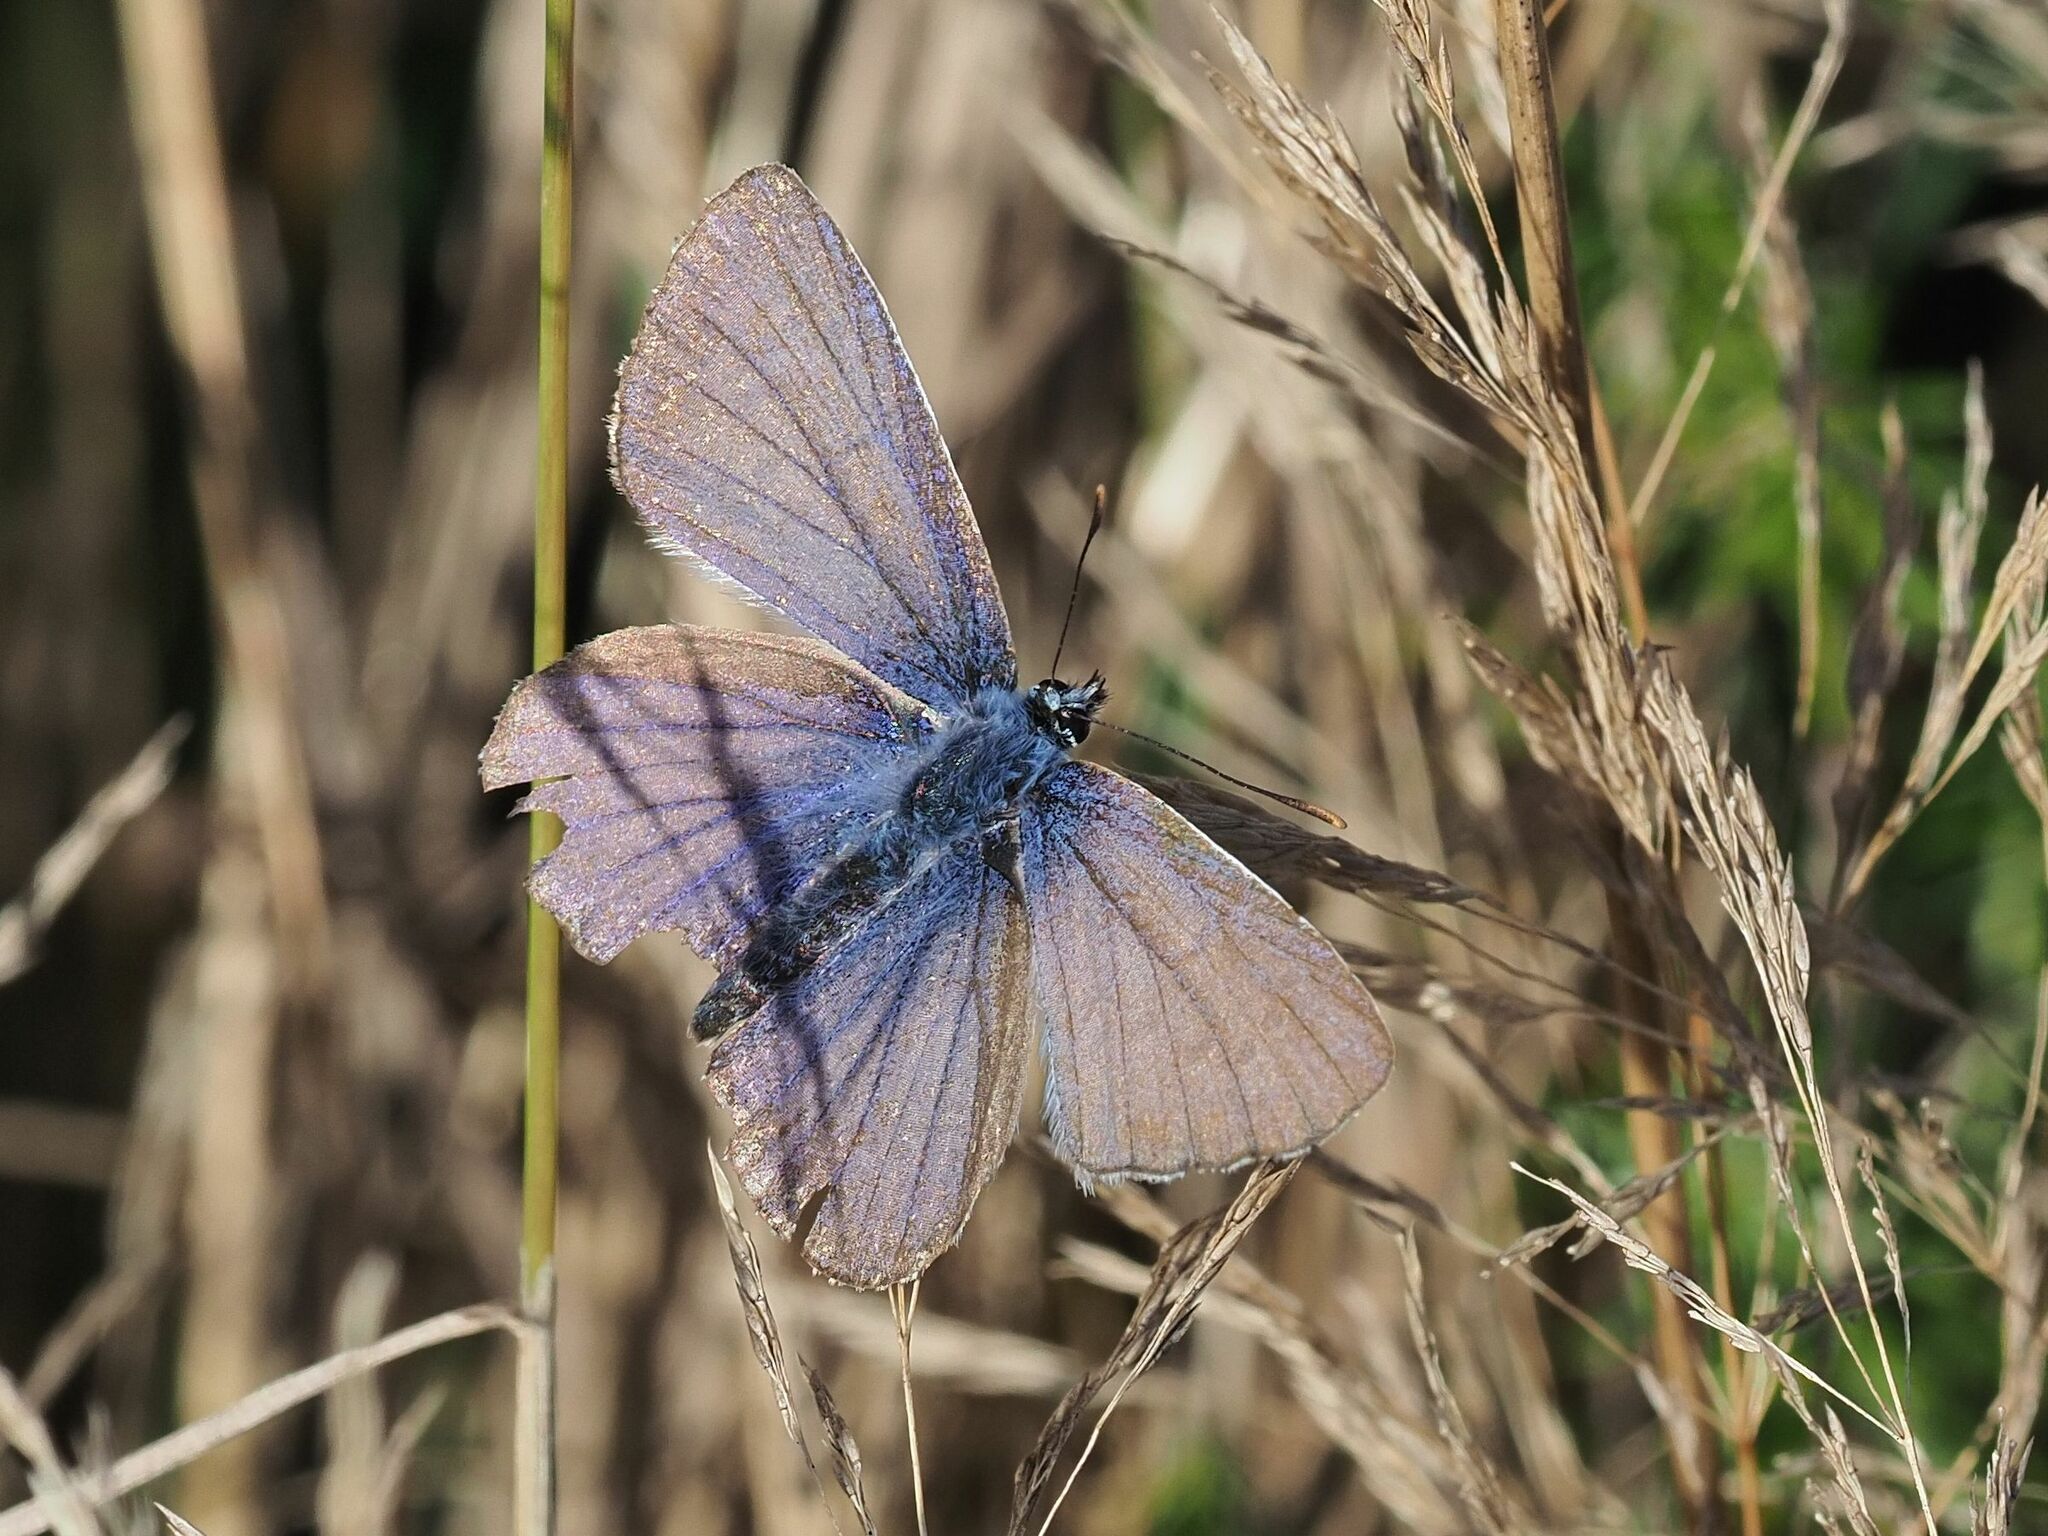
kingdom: Animalia
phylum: Arthropoda
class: Insecta
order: Lepidoptera
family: Lycaenidae
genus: Polyommatus
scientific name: Polyommatus icarus
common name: Common blue
